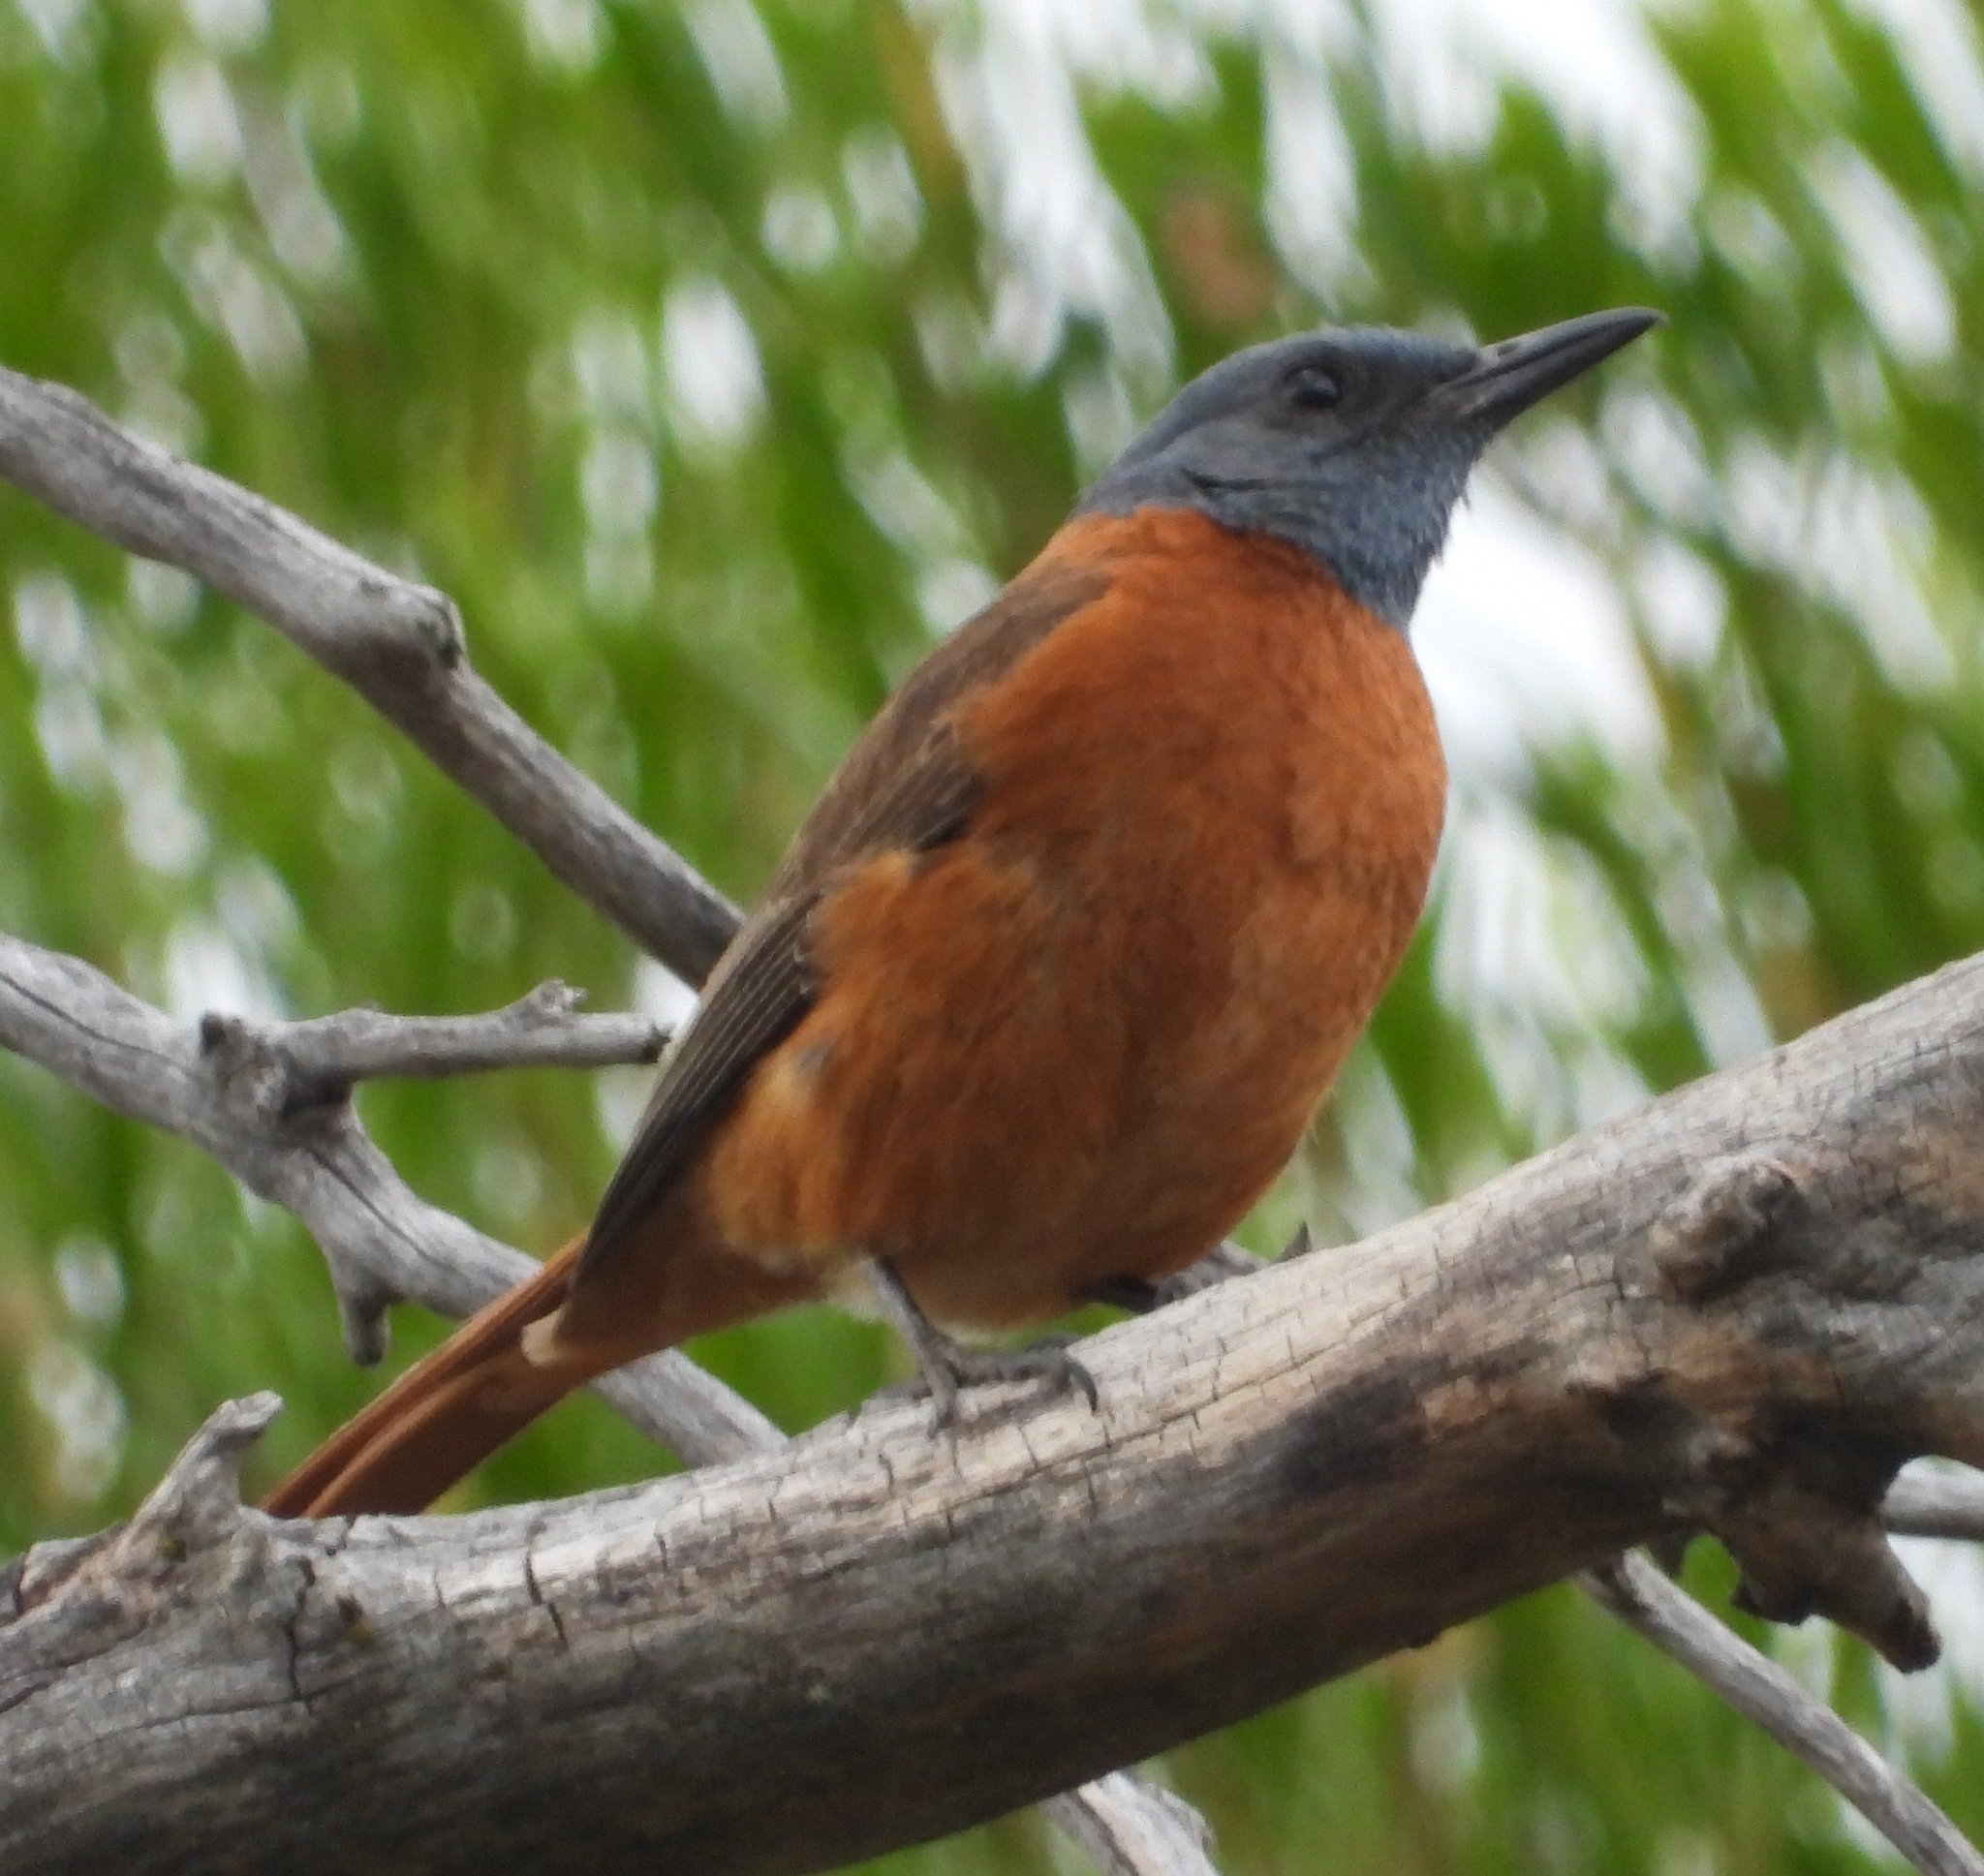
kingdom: Animalia
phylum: Chordata
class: Aves
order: Passeriformes
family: Muscicapidae
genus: Monticola
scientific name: Monticola rupestris
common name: Cape rock thrush
